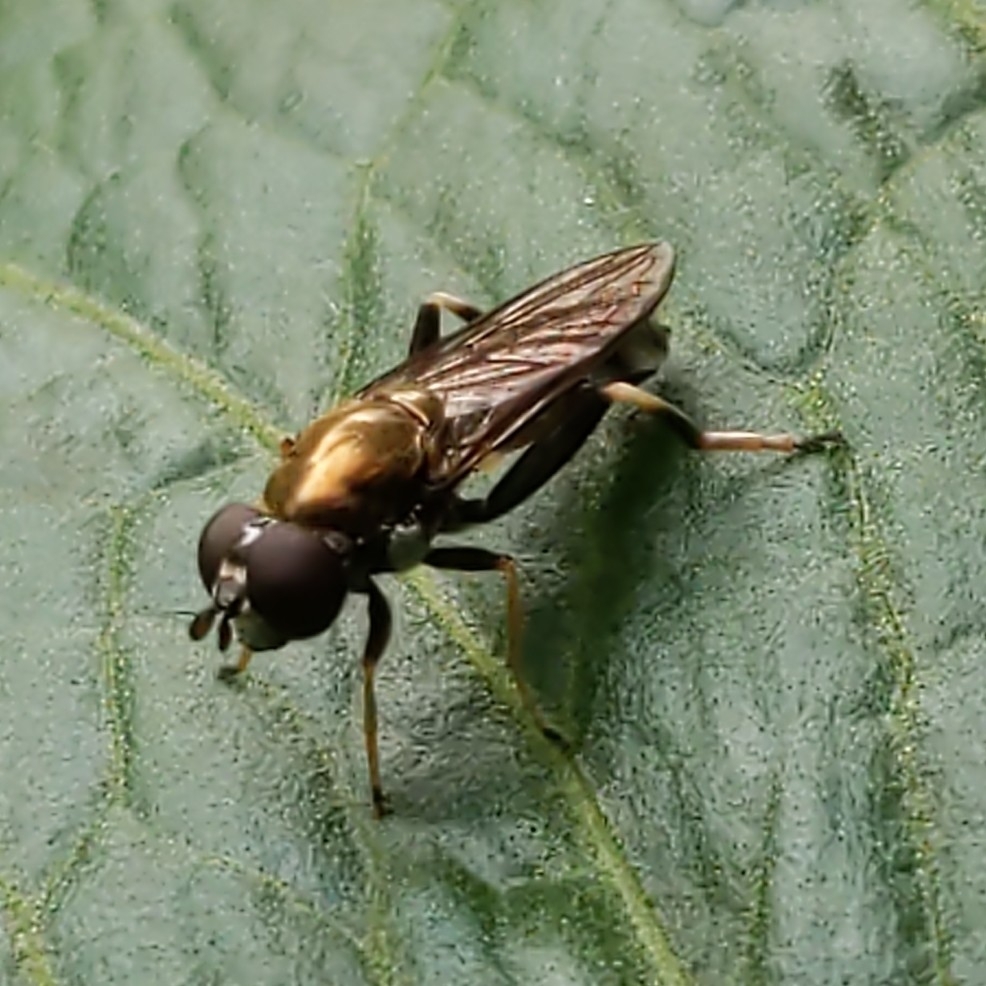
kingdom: Animalia
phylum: Arthropoda
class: Insecta
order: Diptera
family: Syrphidae
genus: Xylota
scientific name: Xylota
